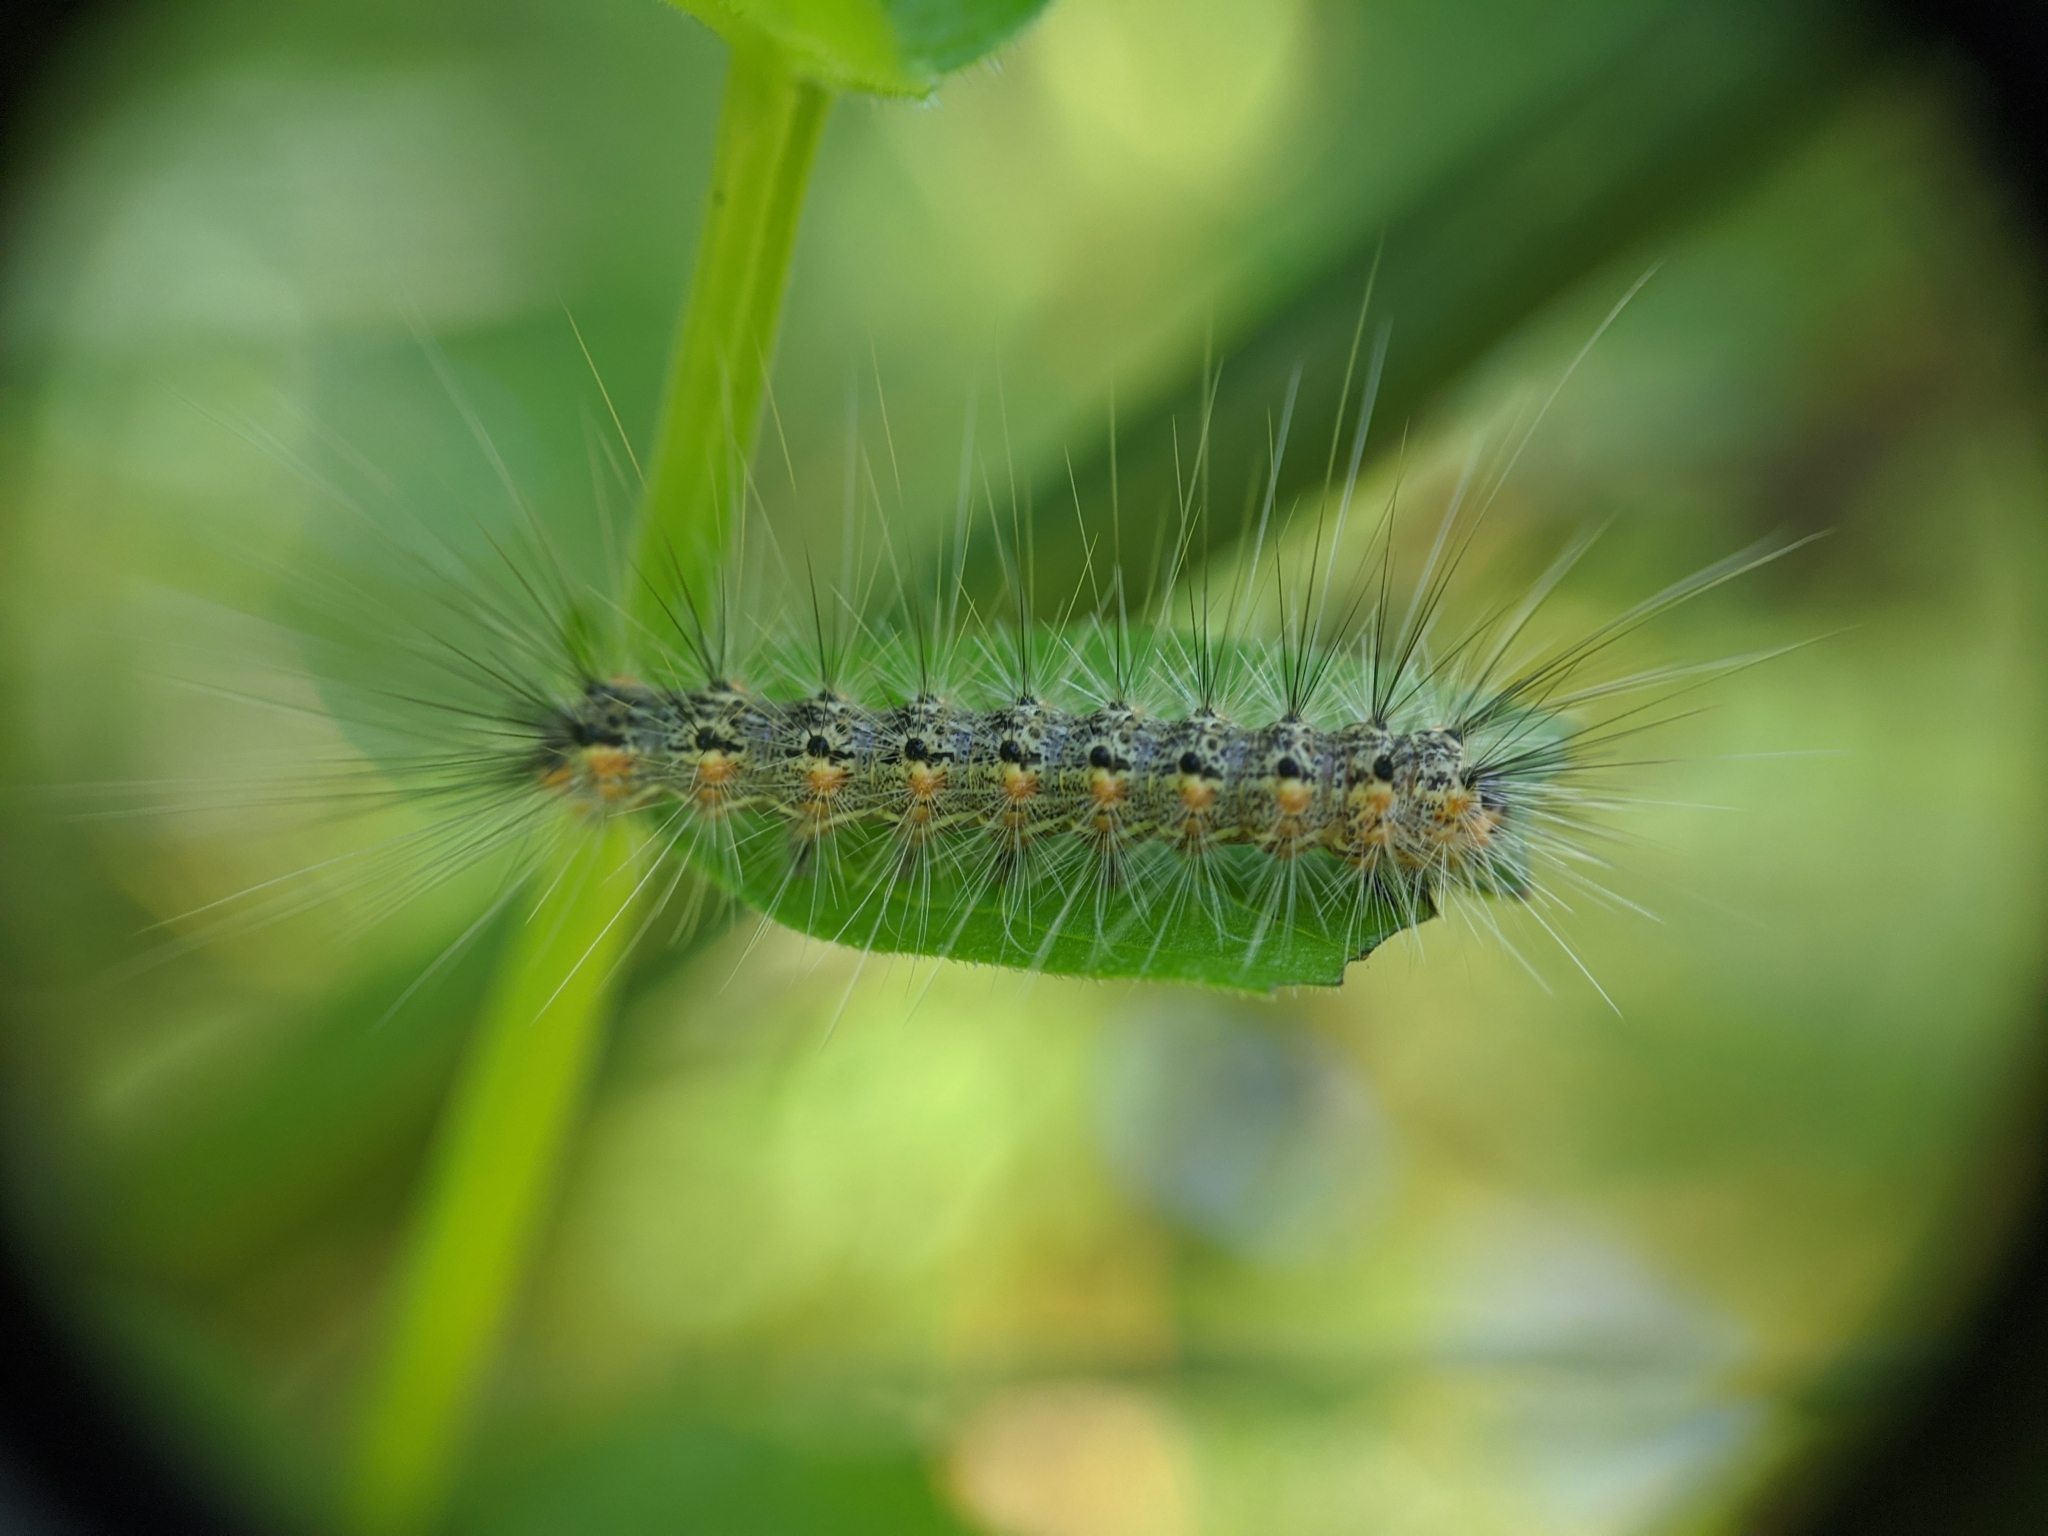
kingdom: Animalia
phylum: Arthropoda
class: Insecta
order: Lepidoptera
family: Erebidae
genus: Hyphantria
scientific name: Hyphantria cunea
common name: American white moth
